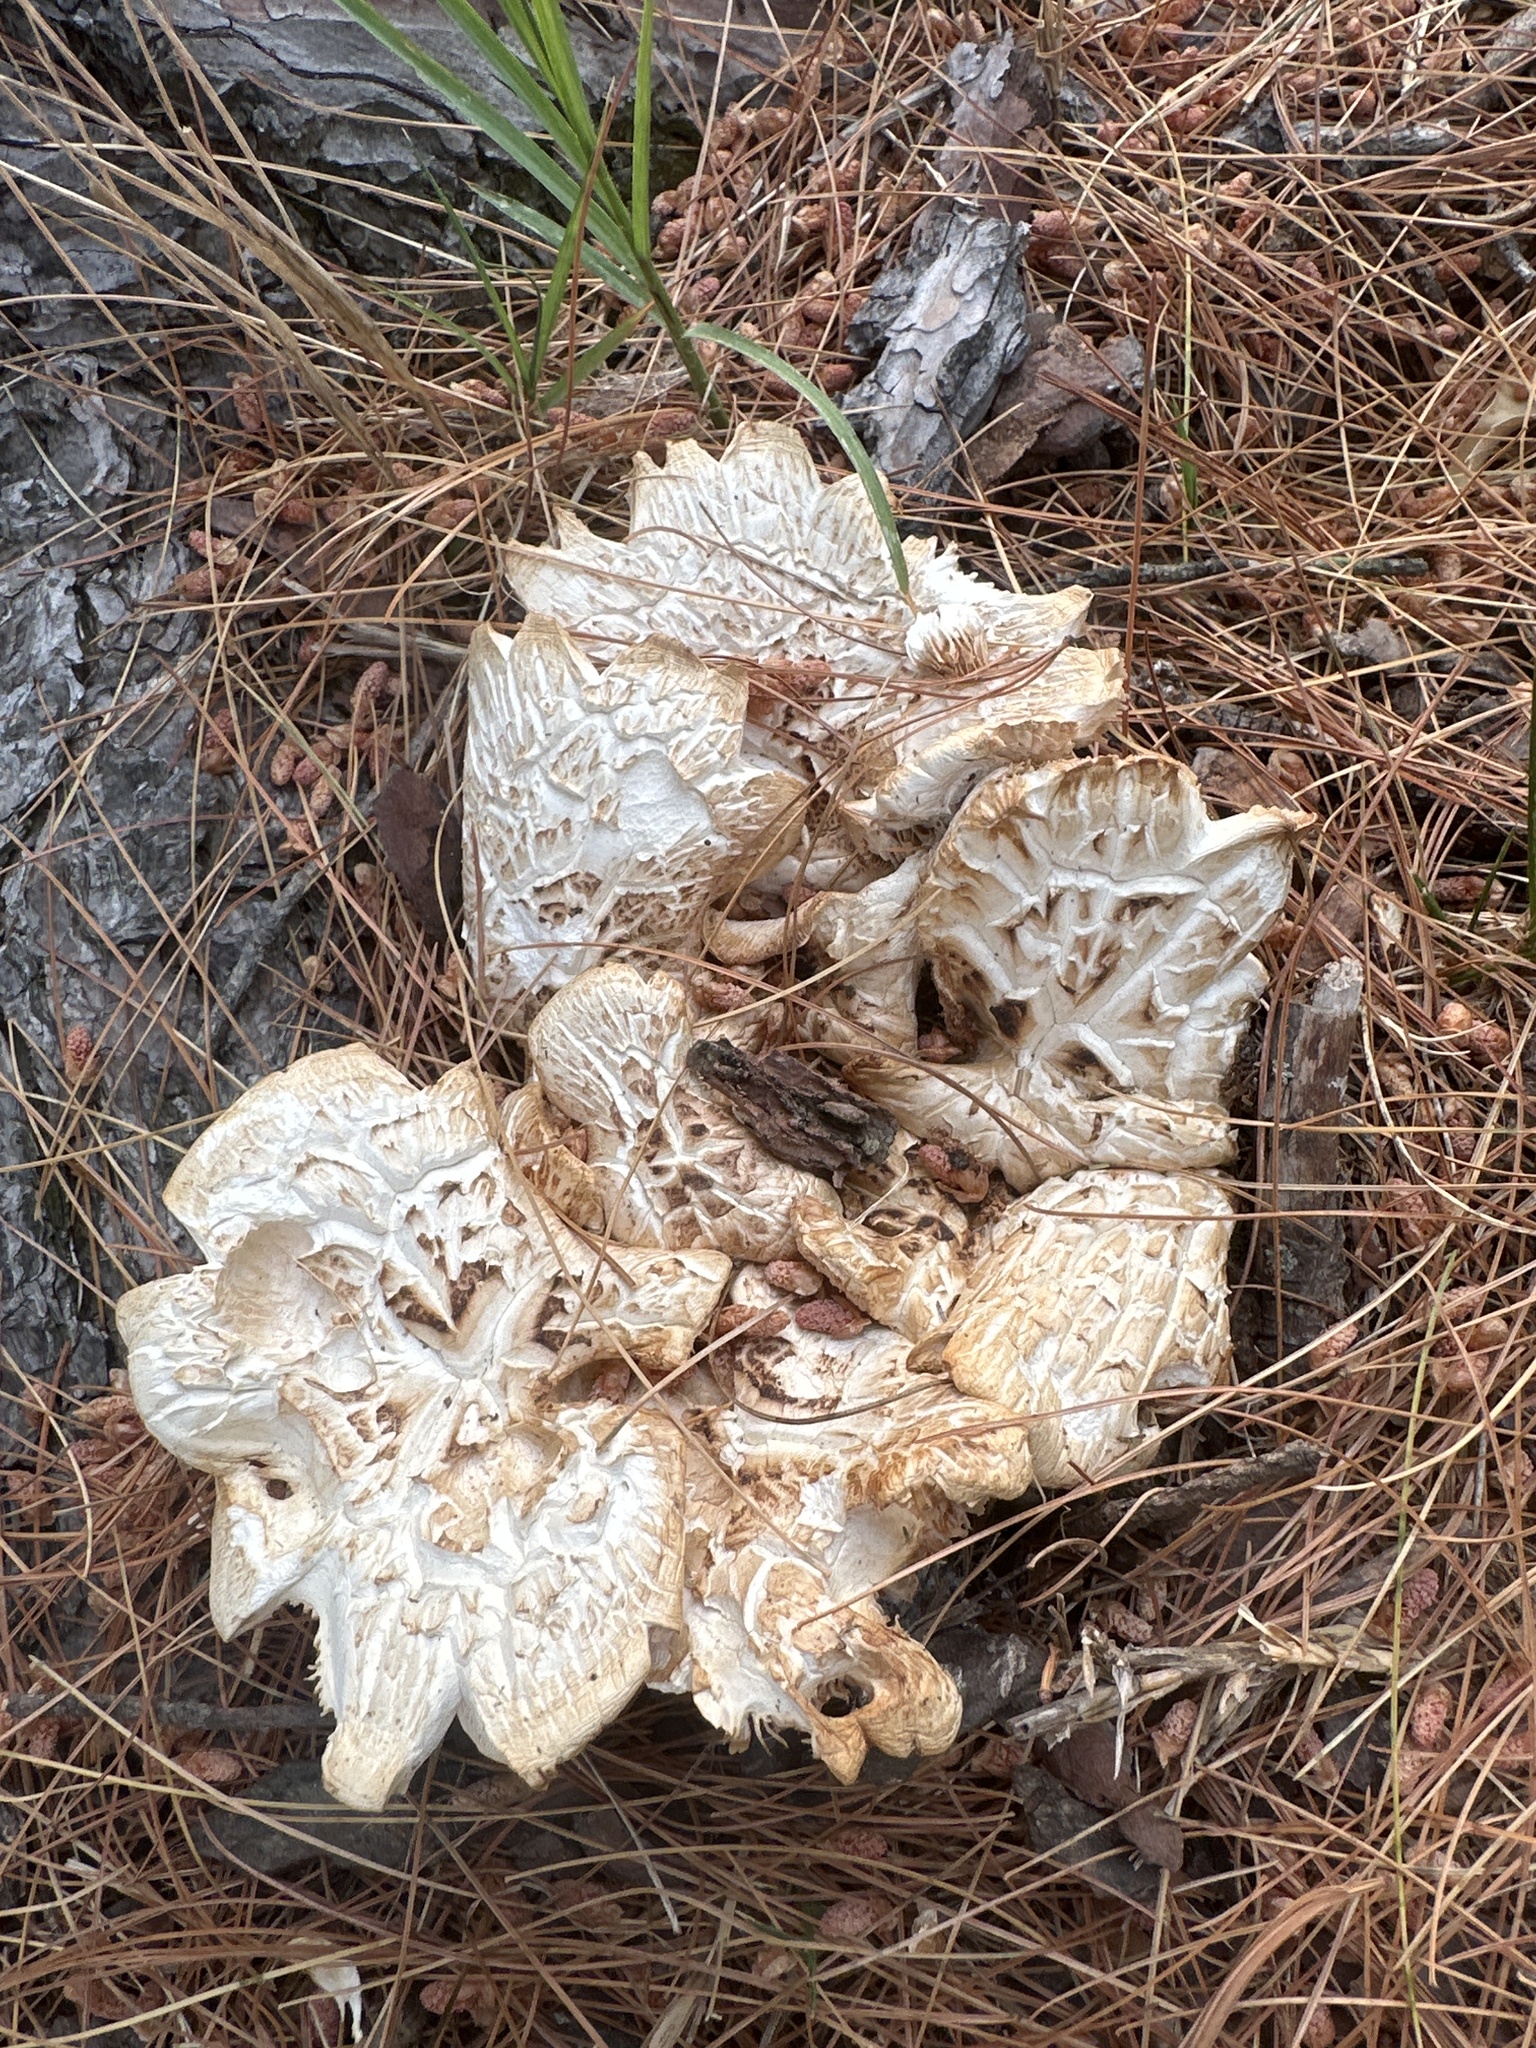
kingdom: Fungi
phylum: Basidiomycota
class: Agaricomycetes
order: Gloeophyllales
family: Gloeophyllaceae
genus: Neolentinus
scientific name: Neolentinus lepideus
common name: Scaly sawgill
